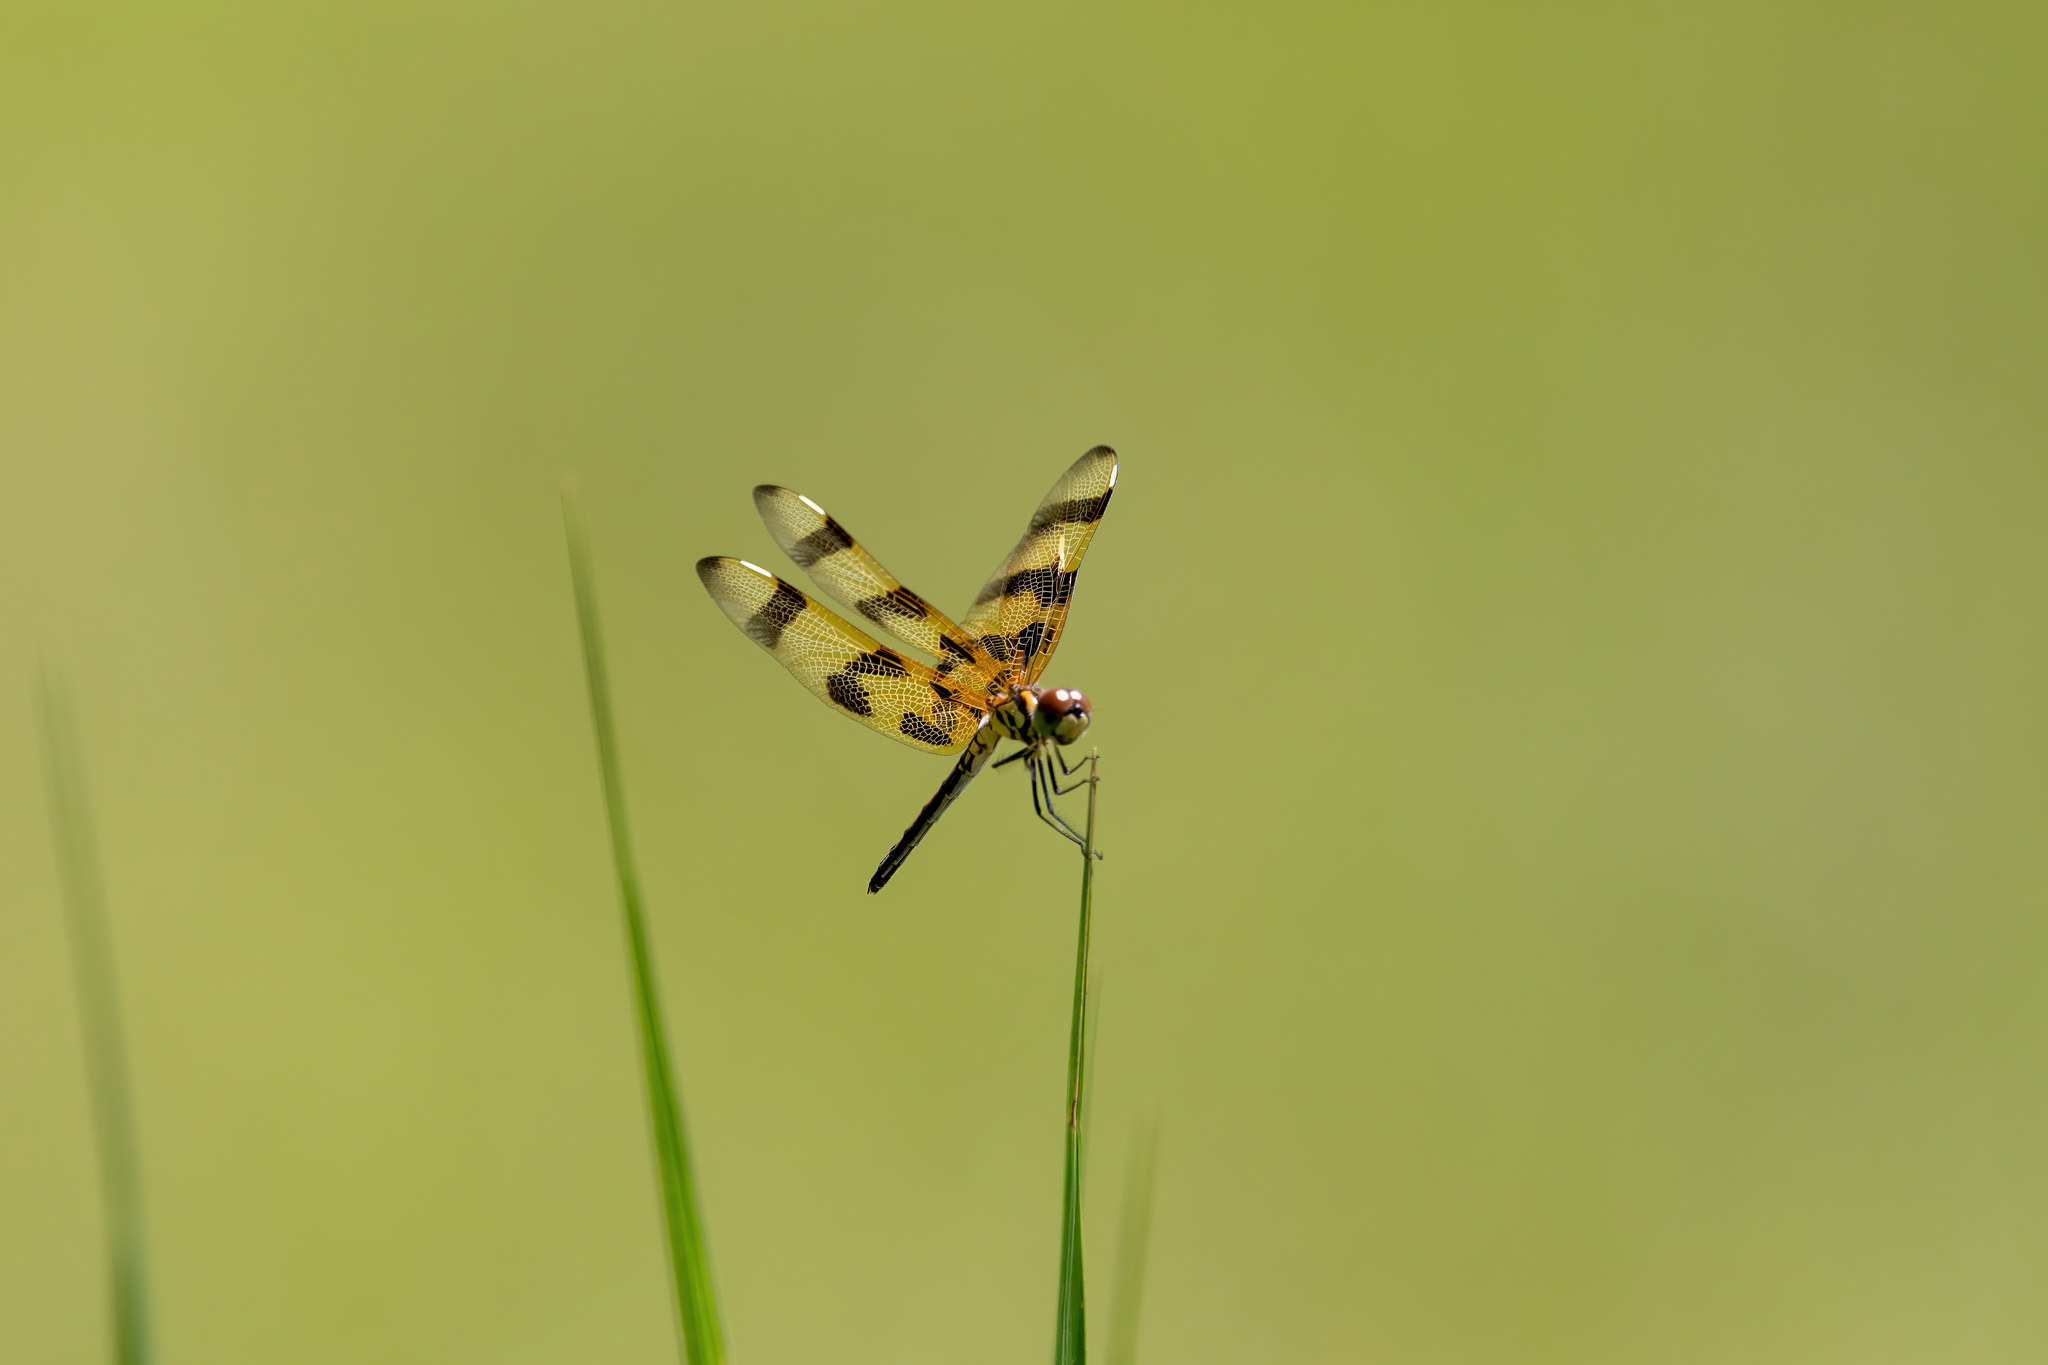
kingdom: Animalia
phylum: Arthropoda
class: Insecta
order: Odonata
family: Libellulidae
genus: Celithemis
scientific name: Celithemis eponina
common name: Halloween pennant
